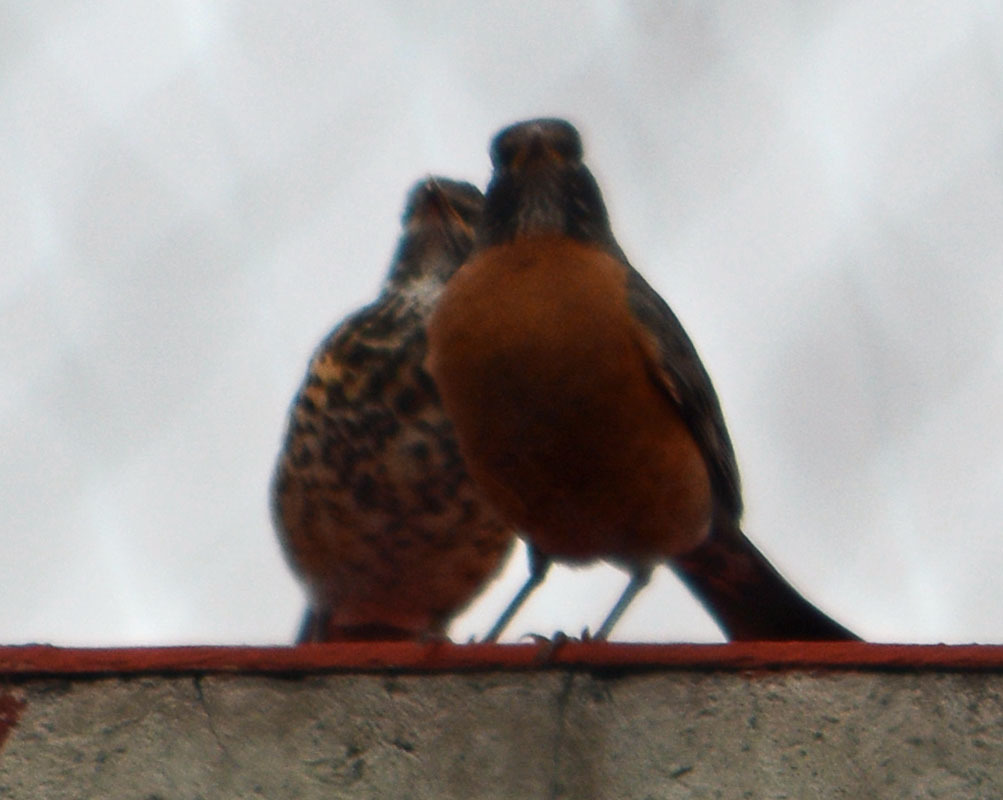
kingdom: Animalia
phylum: Chordata
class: Aves
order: Passeriformes
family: Turdidae
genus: Turdus
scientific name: Turdus migratorius
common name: American robin
